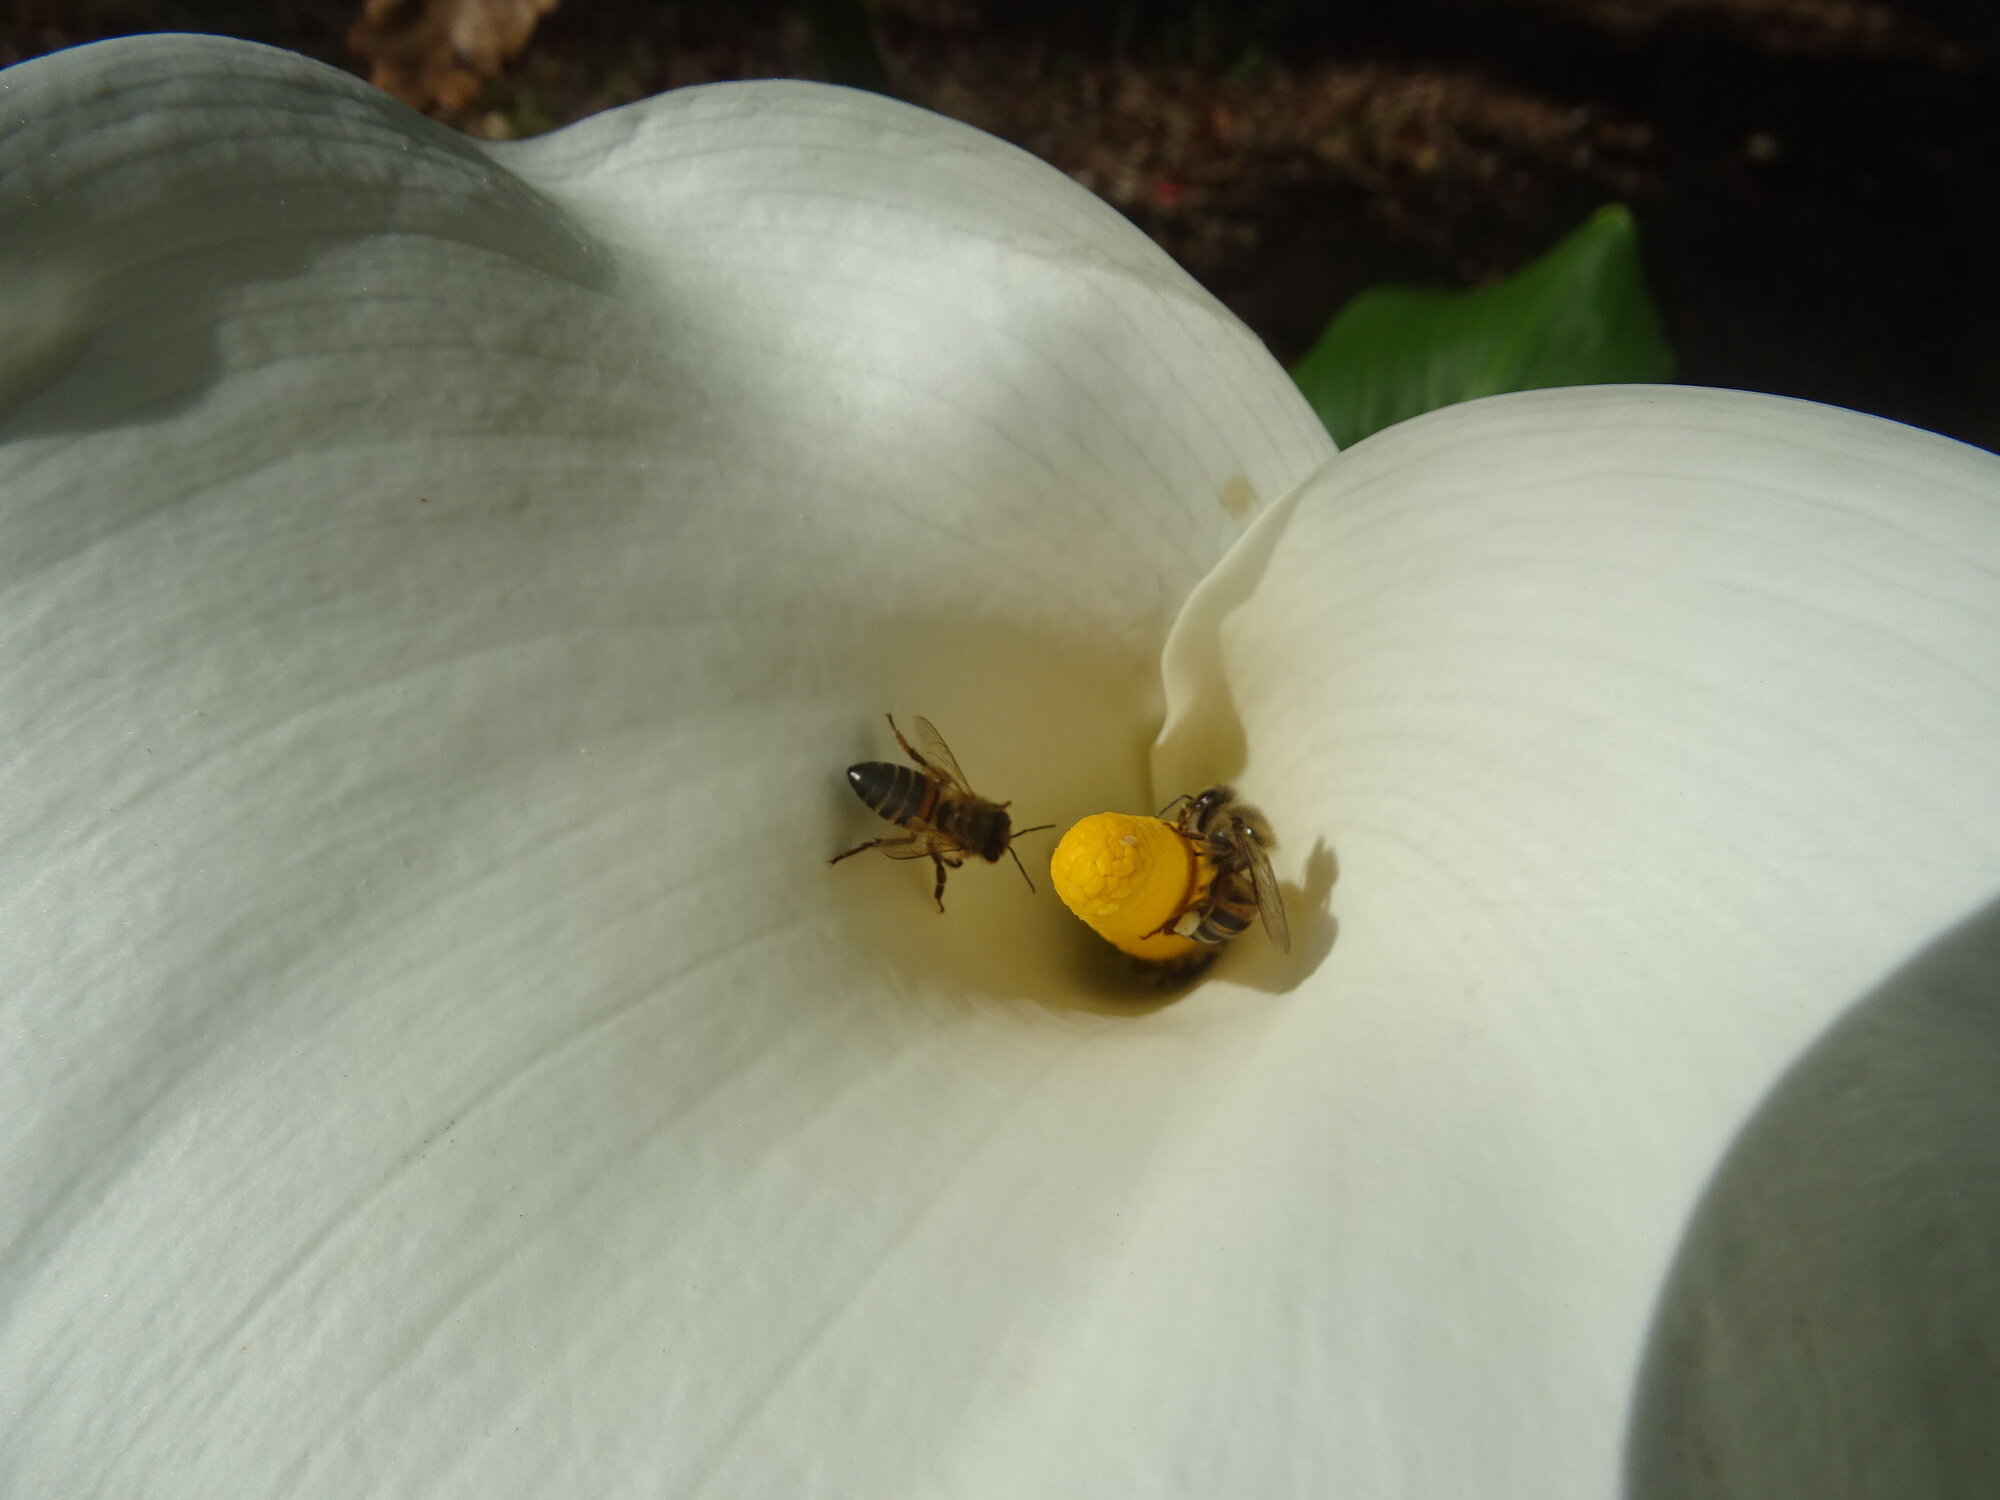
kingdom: Animalia
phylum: Arthropoda
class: Insecta
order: Hymenoptera
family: Apidae
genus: Apis
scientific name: Apis mellifera
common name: Honey bee
